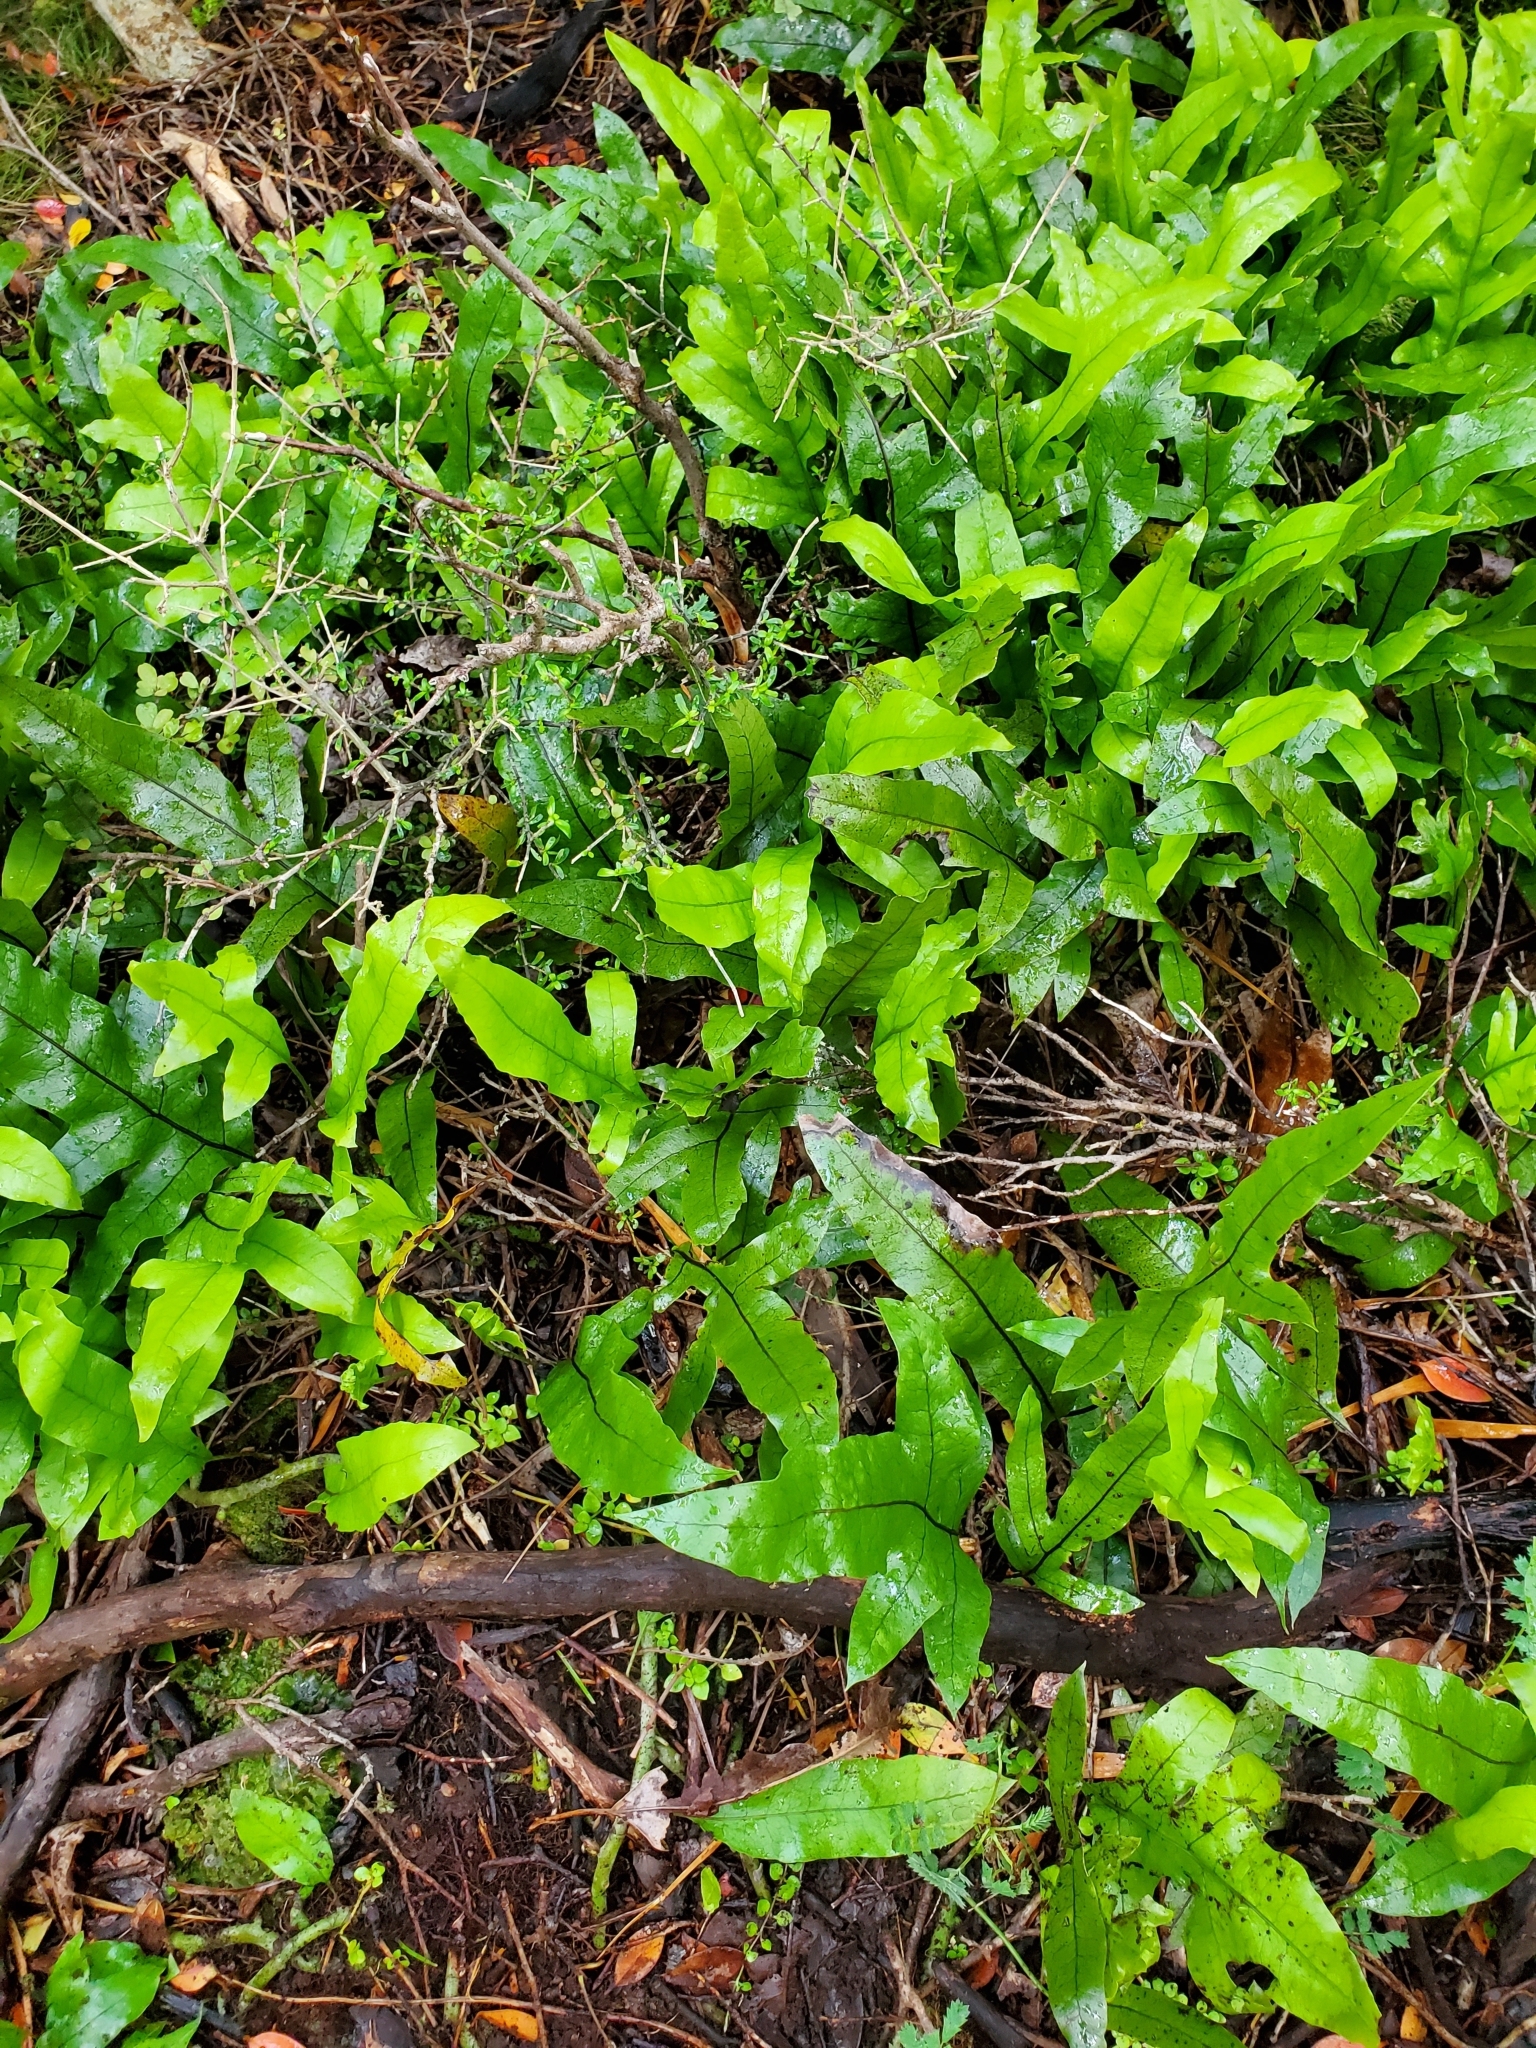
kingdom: Plantae
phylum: Tracheophyta
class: Polypodiopsida
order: Polypodiales
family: Polypodiaceae
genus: Lecanopteris
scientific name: Lecanopteris pustulata
